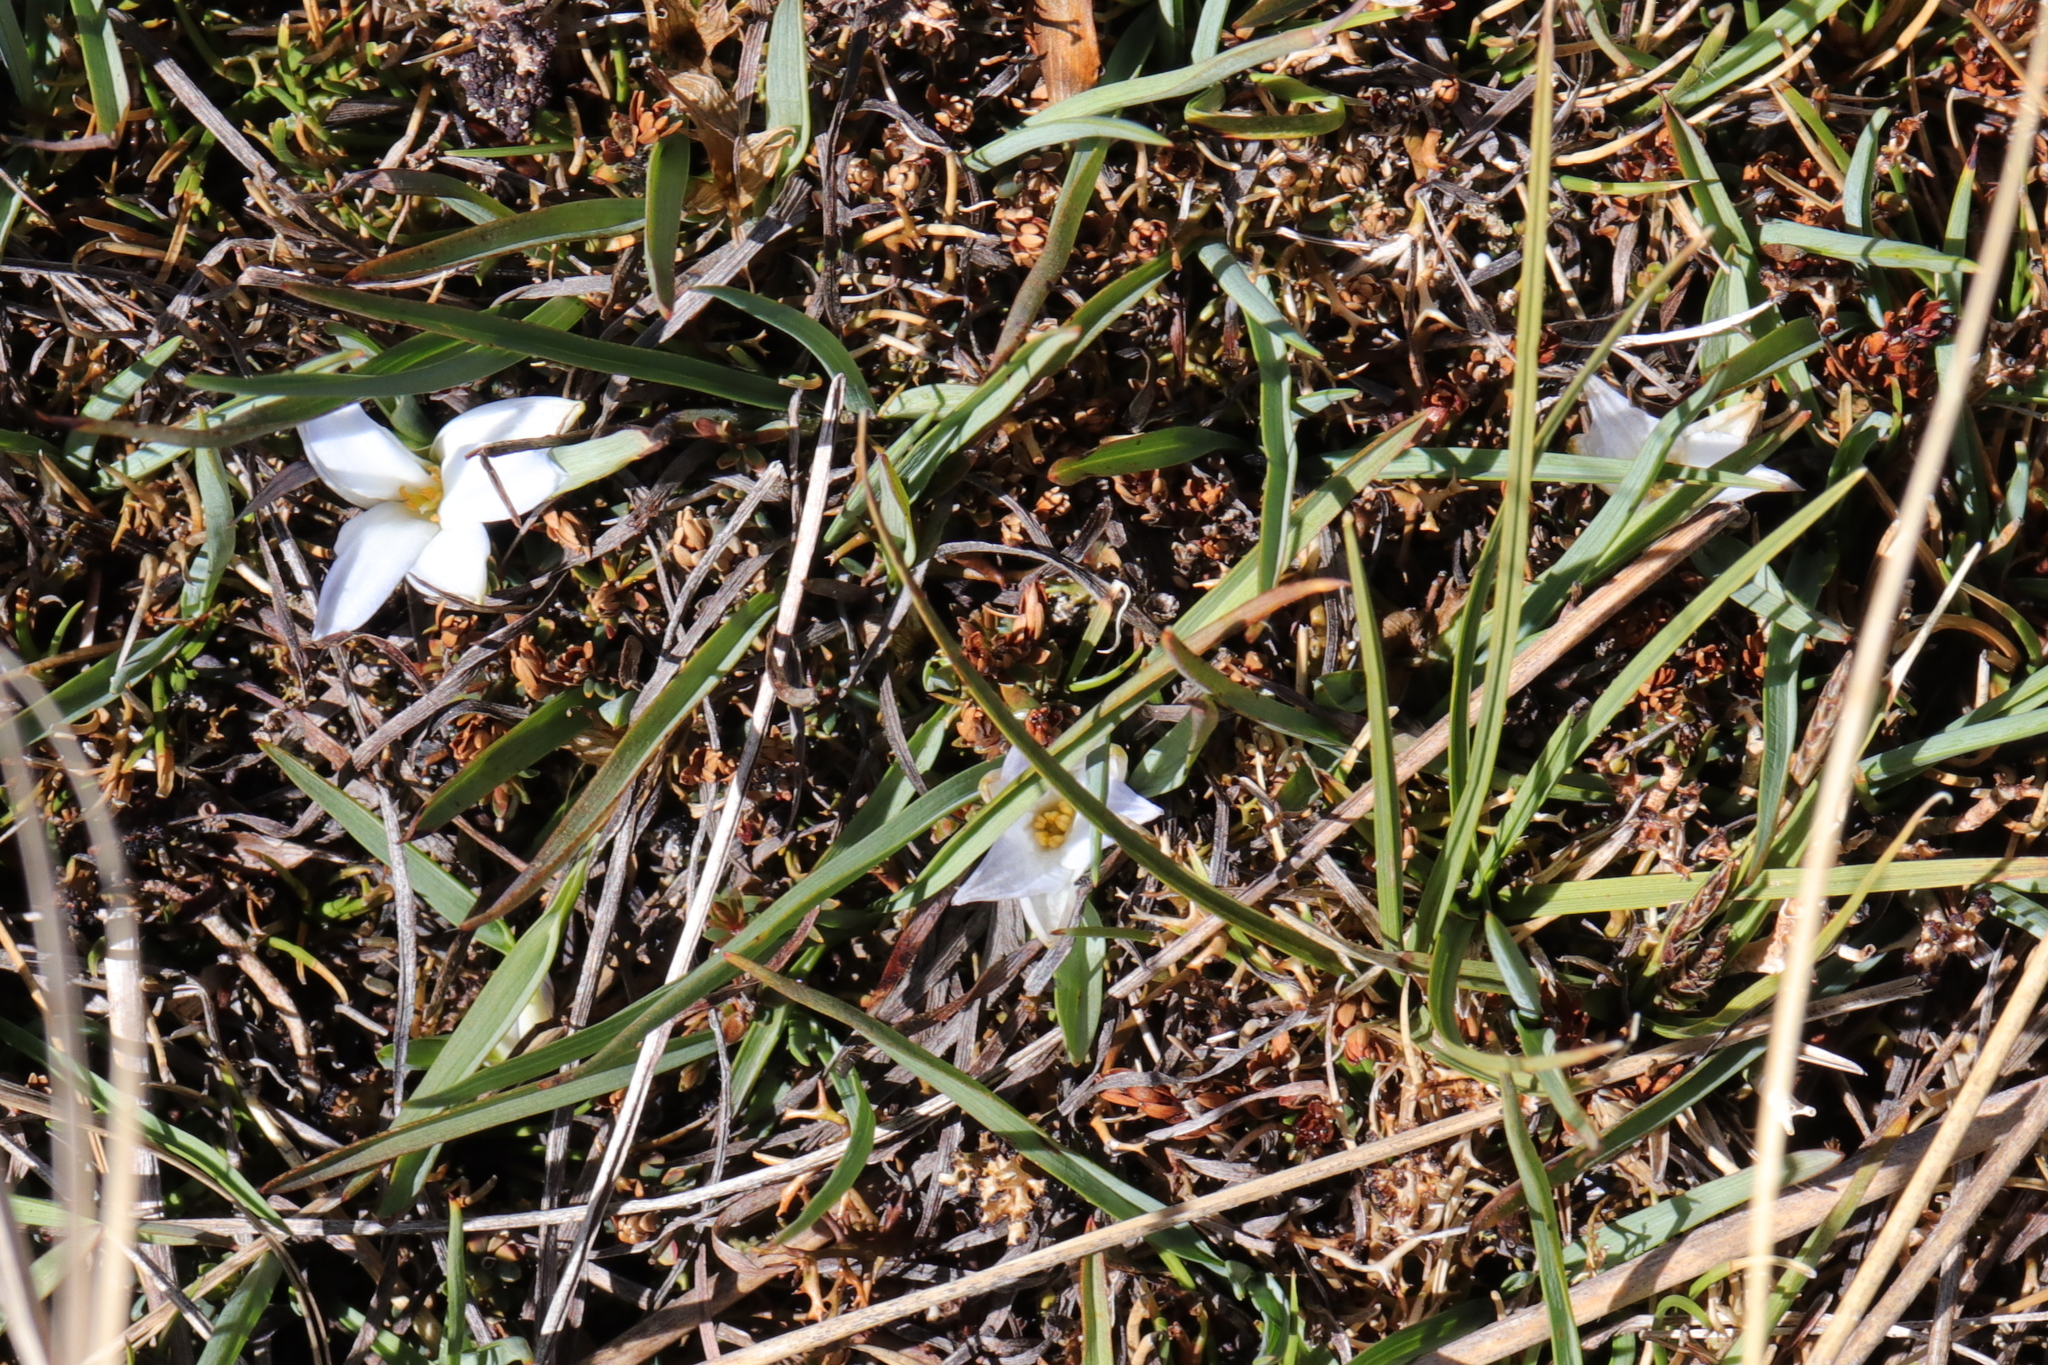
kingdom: Plantae
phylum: Tracheophyta
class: Liliopsida
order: Asparagales
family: Asphodelaceae
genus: Herpolirion
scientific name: Herpolirion novae-zelandiae
